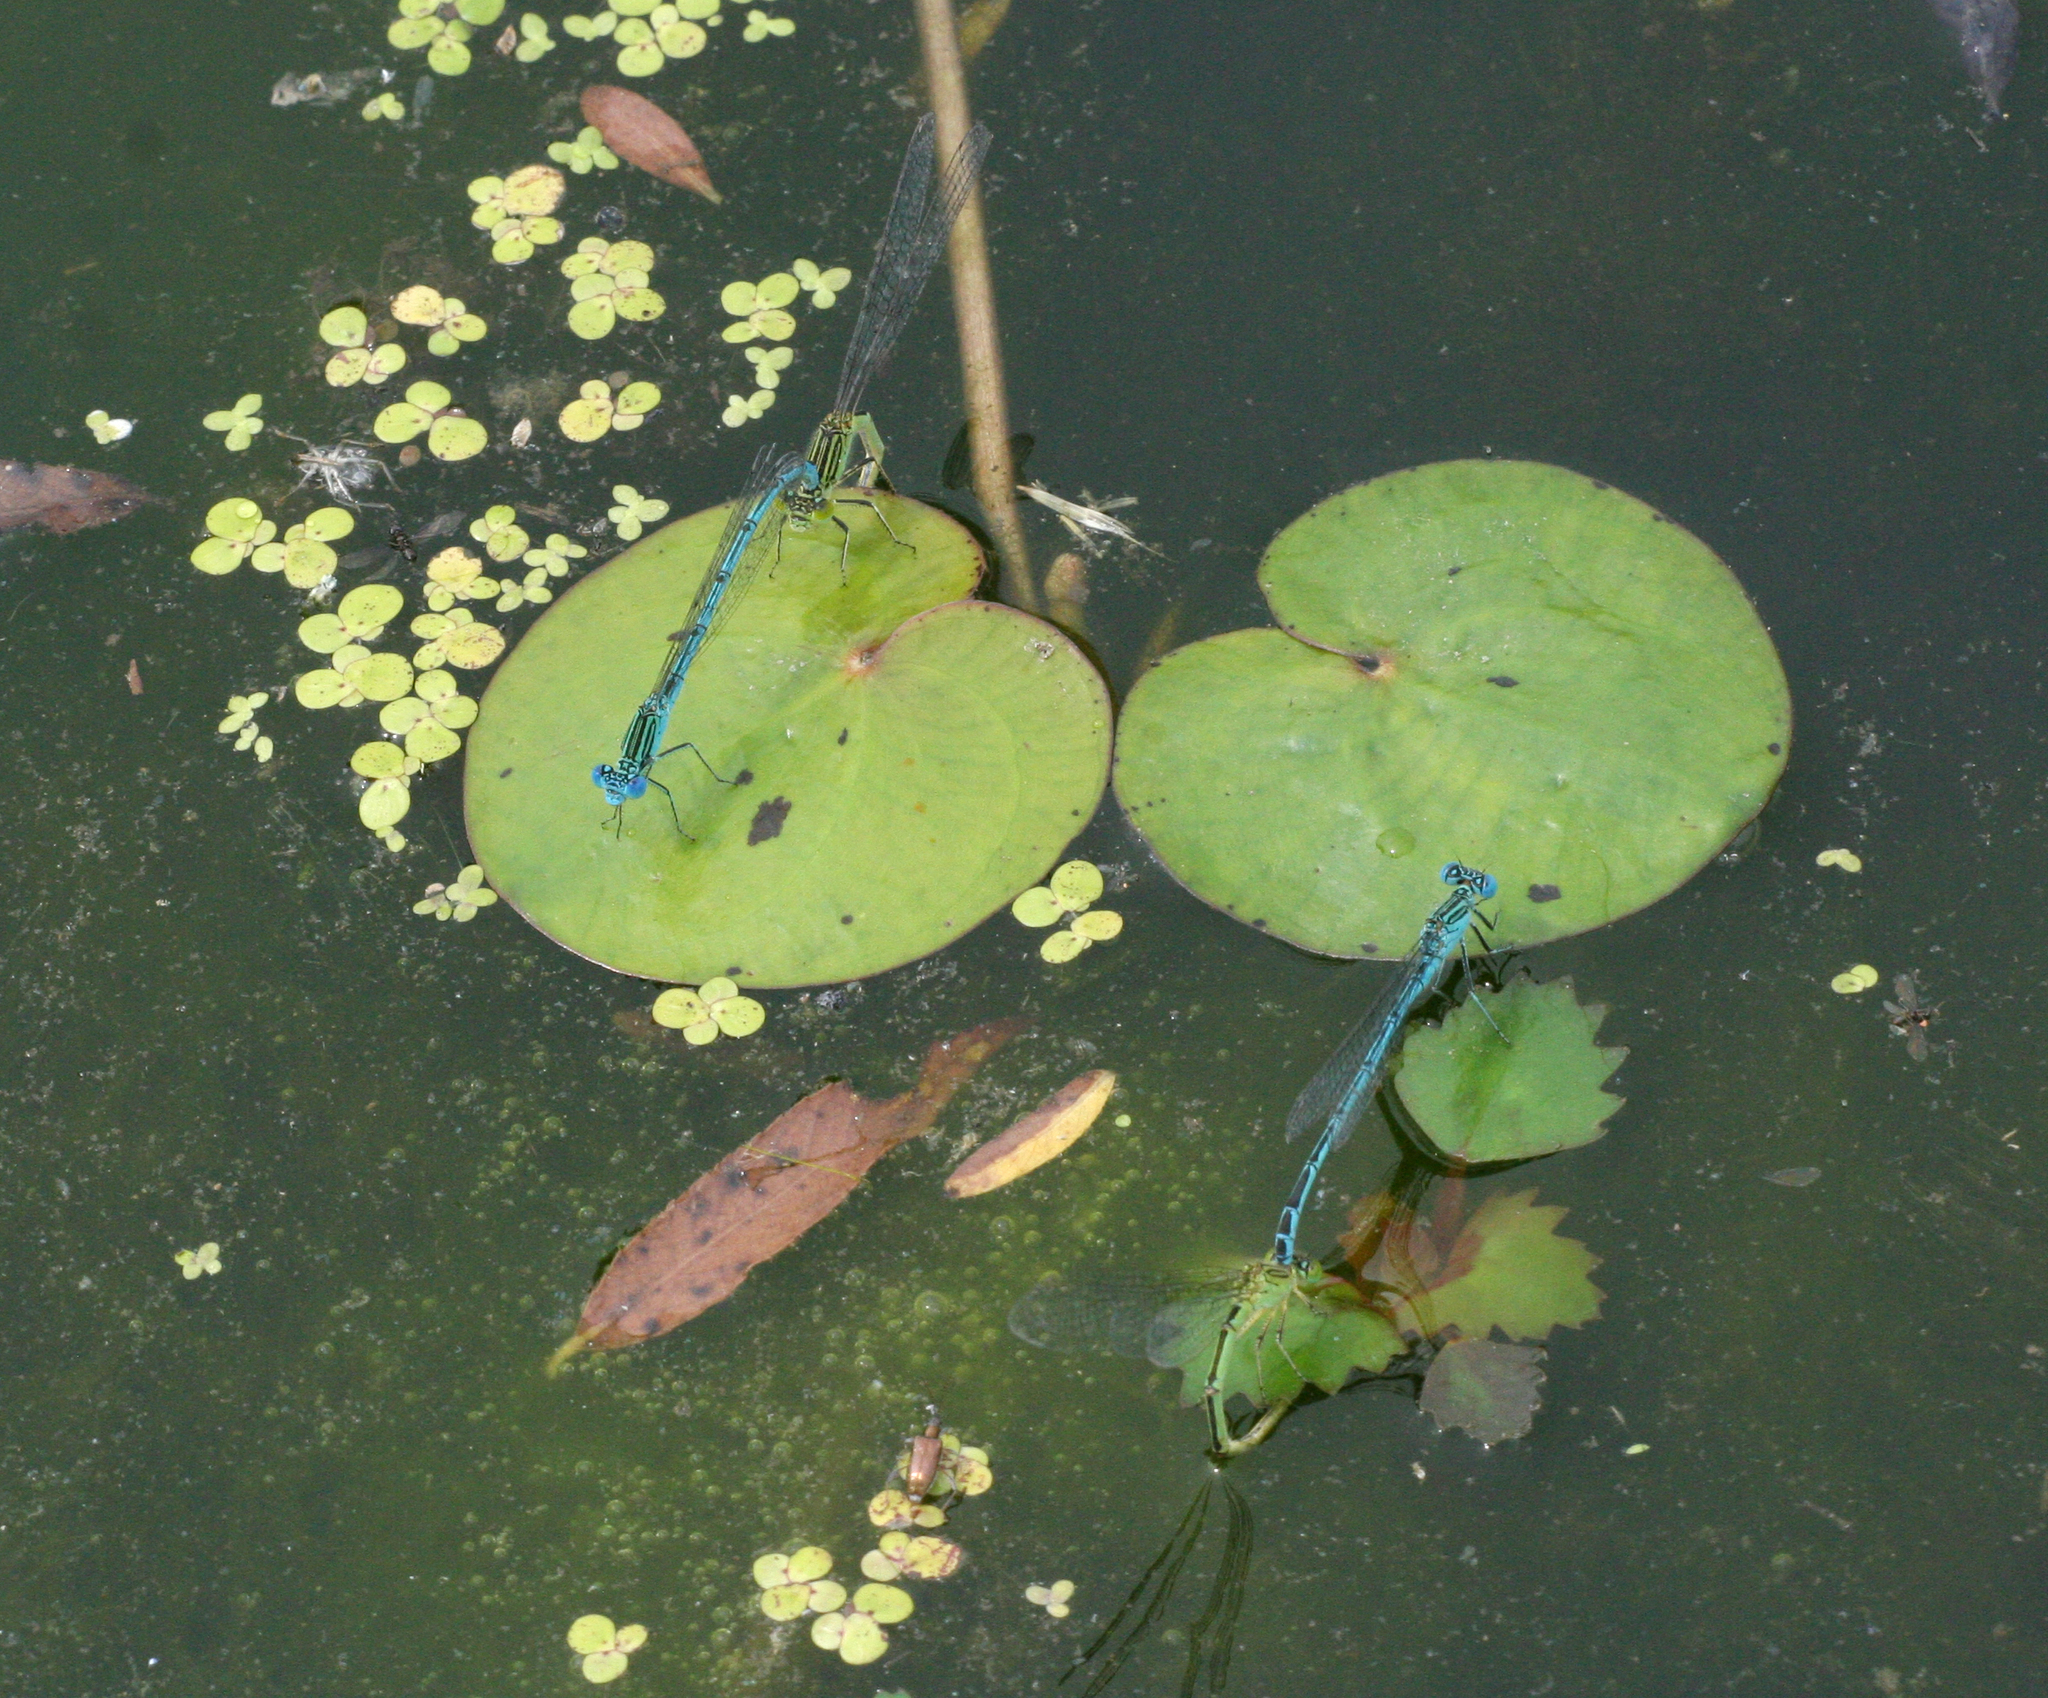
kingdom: Animalia
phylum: Arthropoda
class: Insecta
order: Odonata
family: Coenagrionidae
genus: Paracercion
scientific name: Paracercion plagiosum
